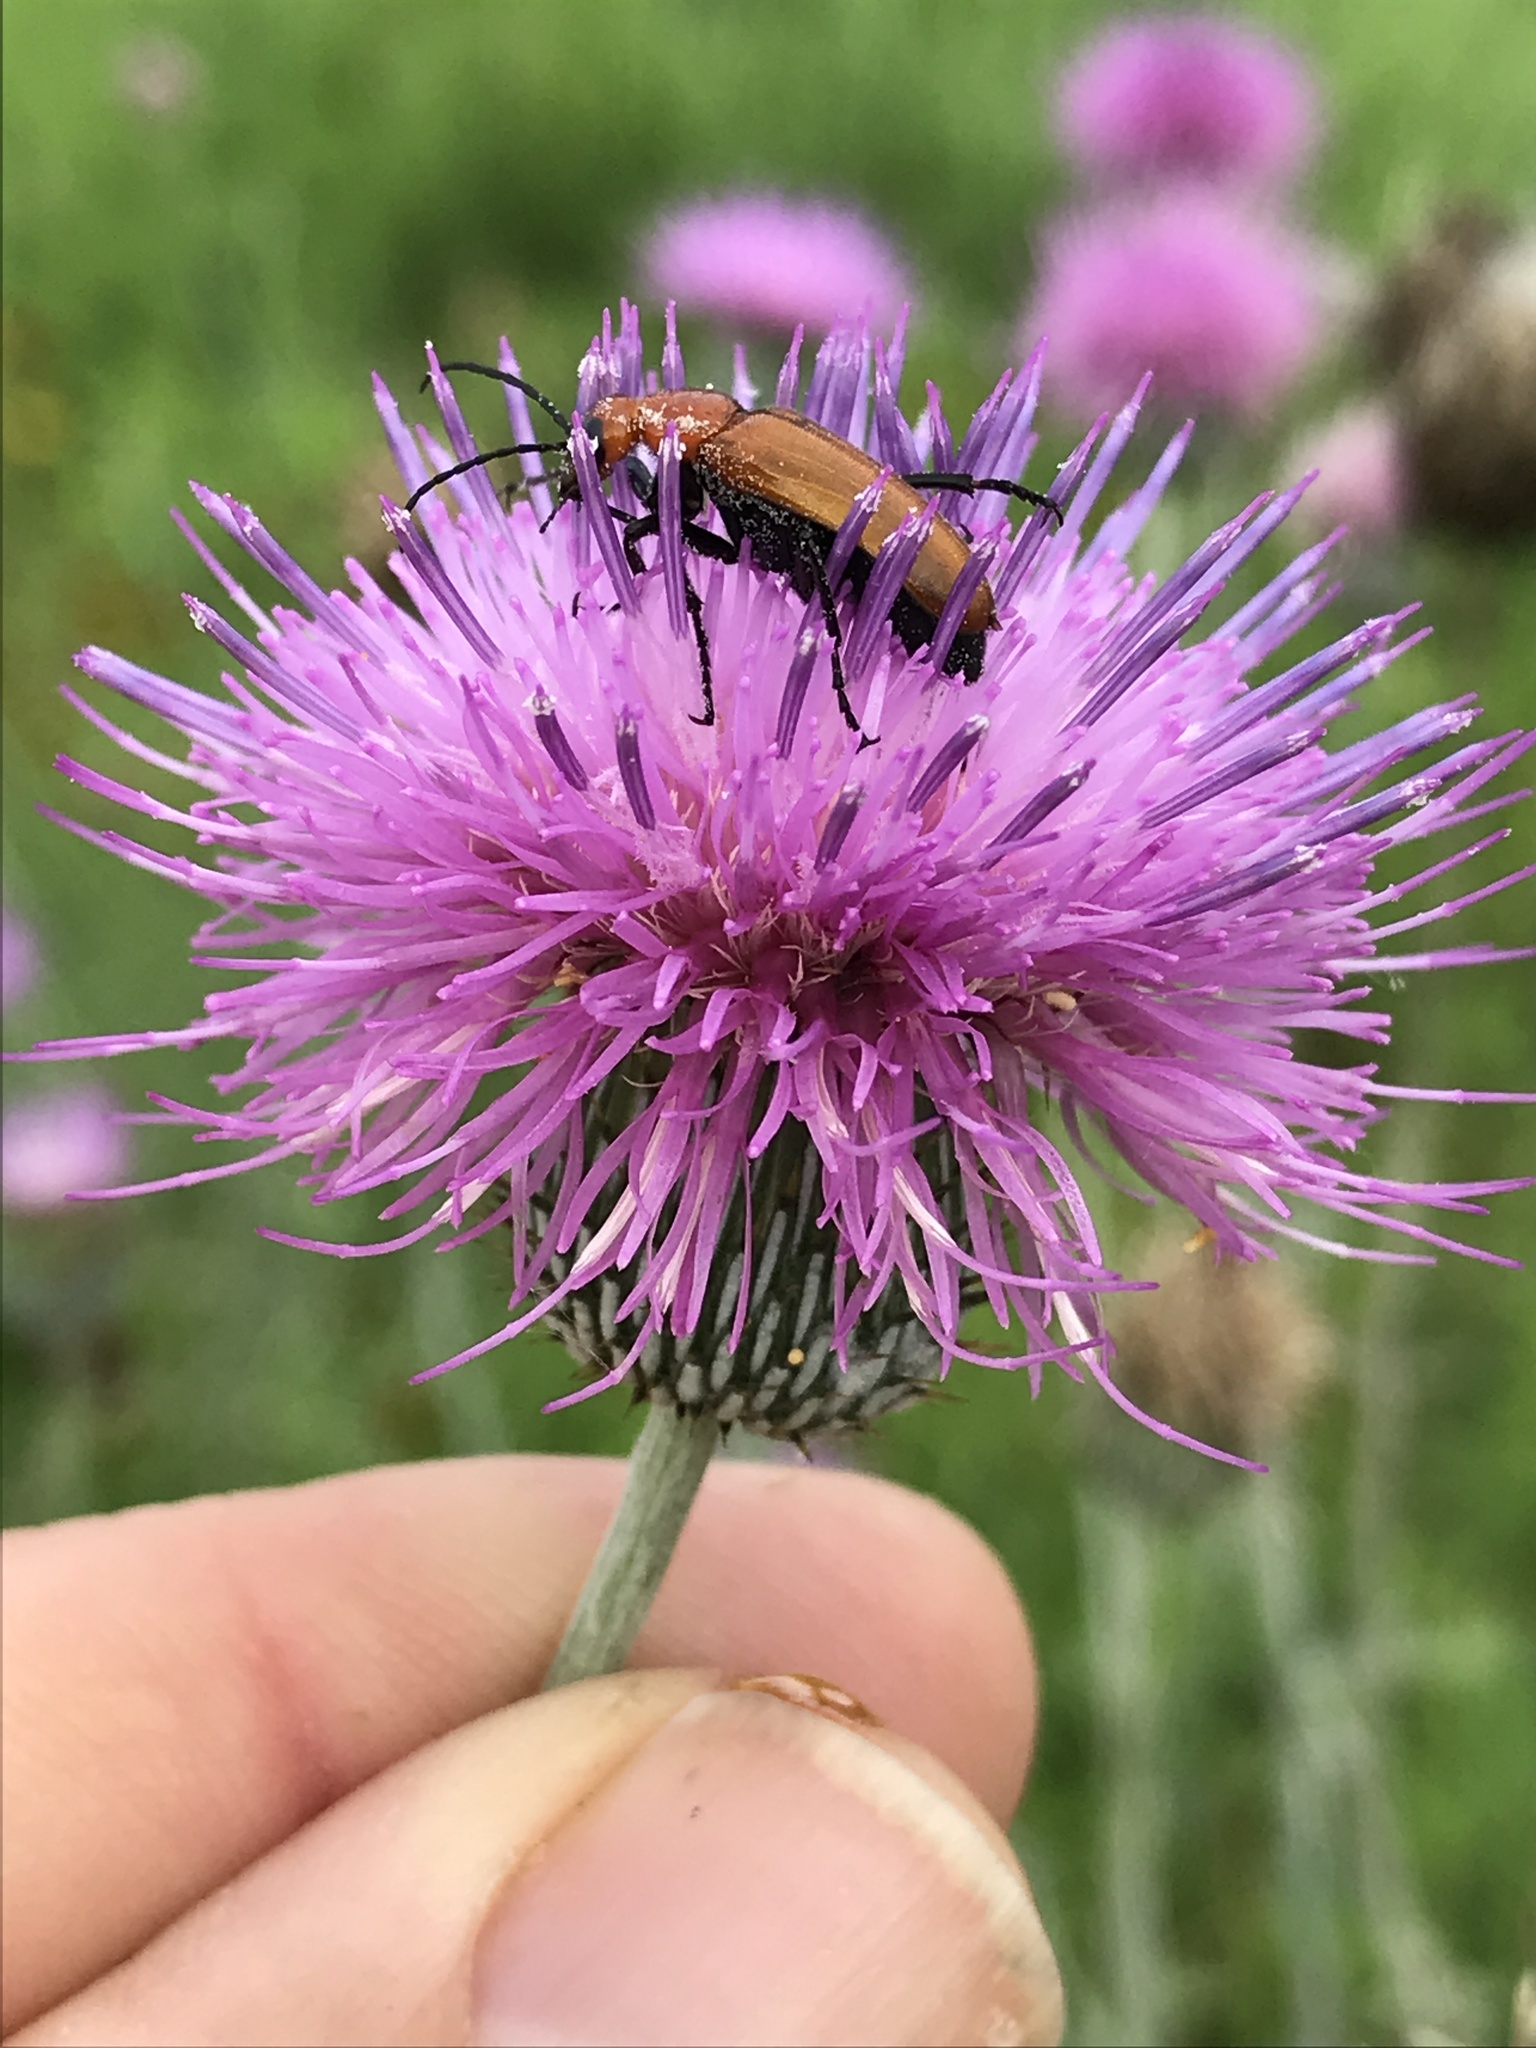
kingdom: Plantae
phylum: Tracheophyta
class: Magnoliopsida
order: Asterales
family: Asteraceae
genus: Cirsium
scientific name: Cirsium texanum
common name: Texas purple thistle
